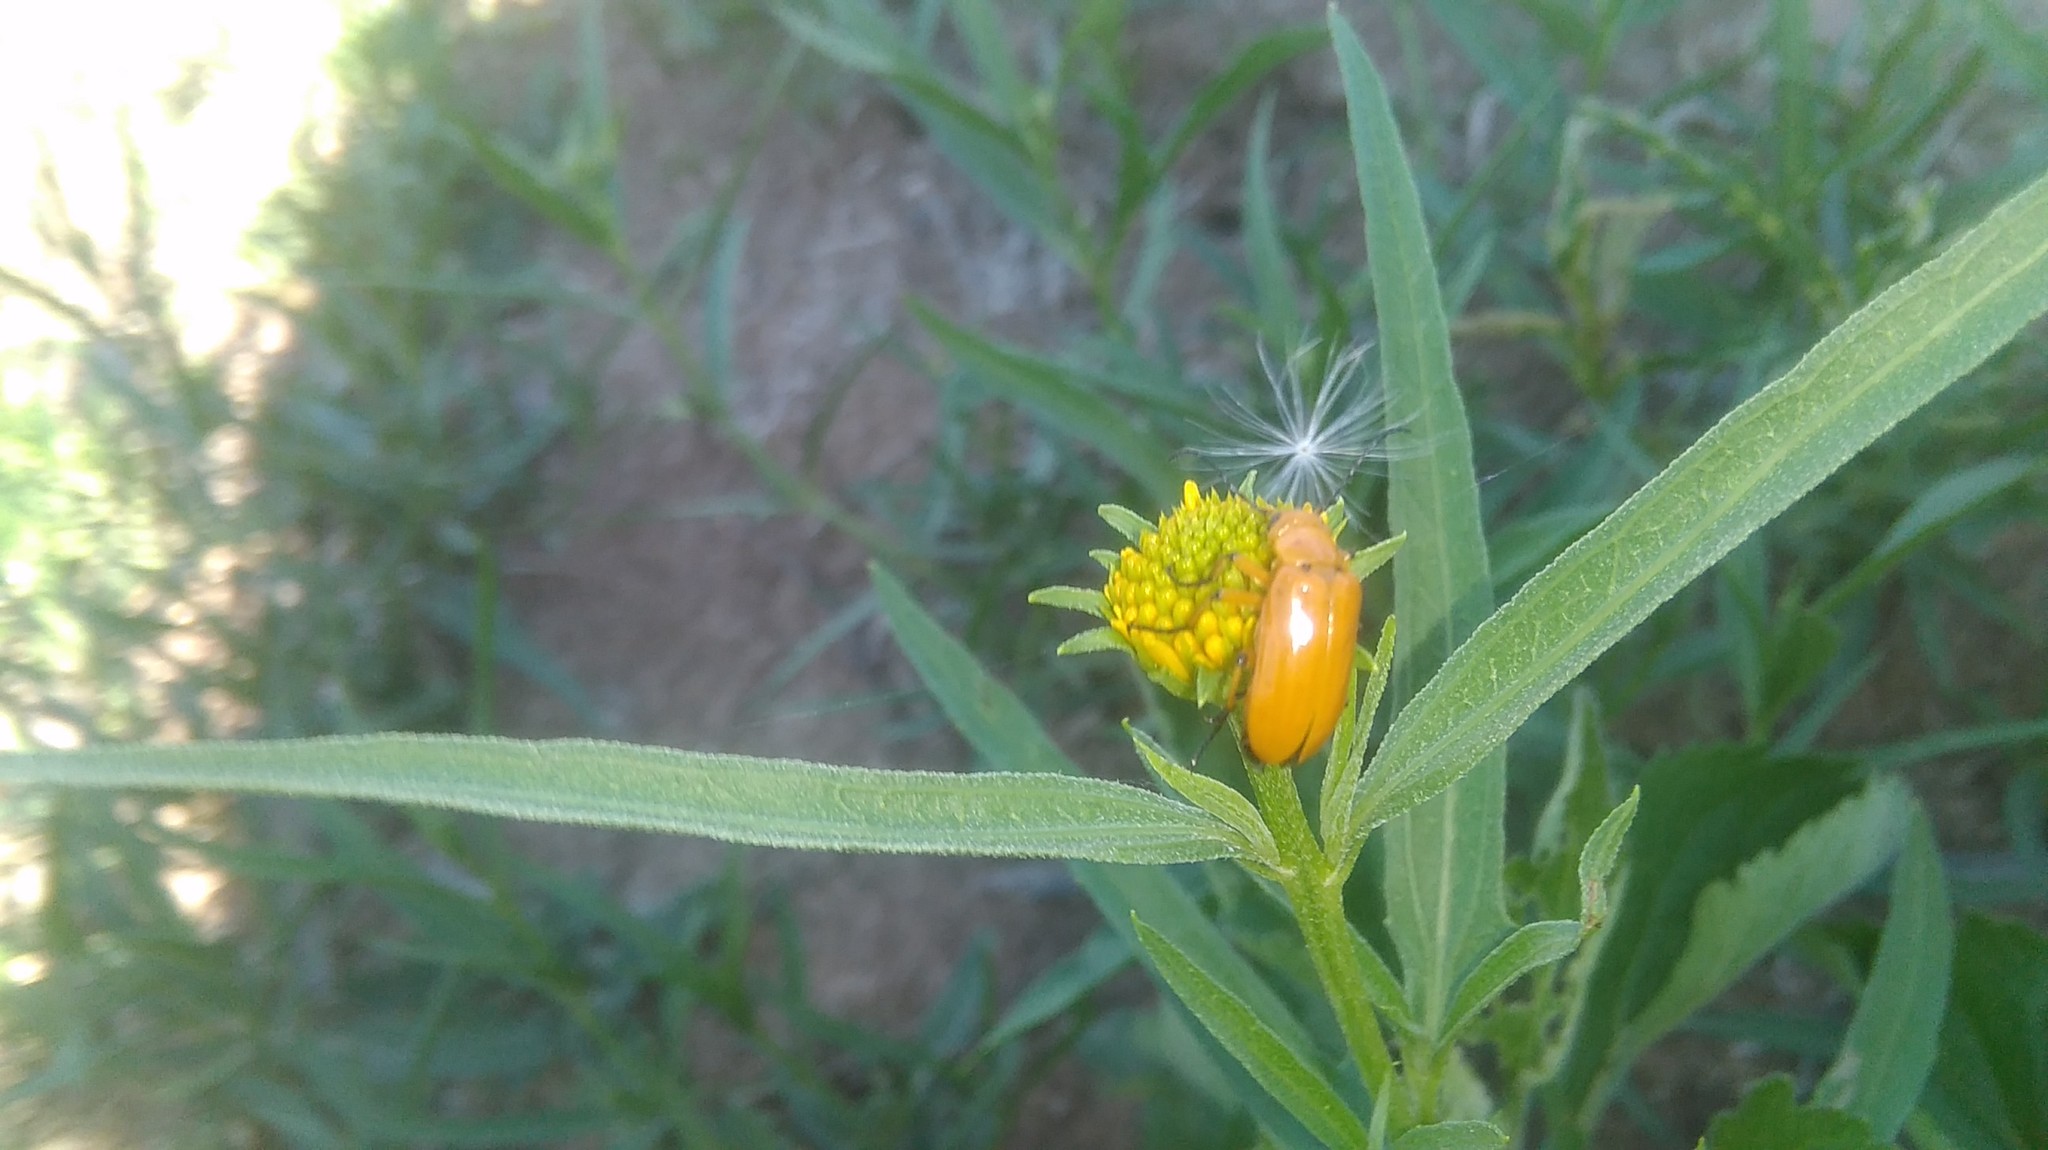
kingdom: Animalia
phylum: Arthropoda
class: Insecta
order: Coleoptera
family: Meloidae
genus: Nemognatha
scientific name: Nemognatha
